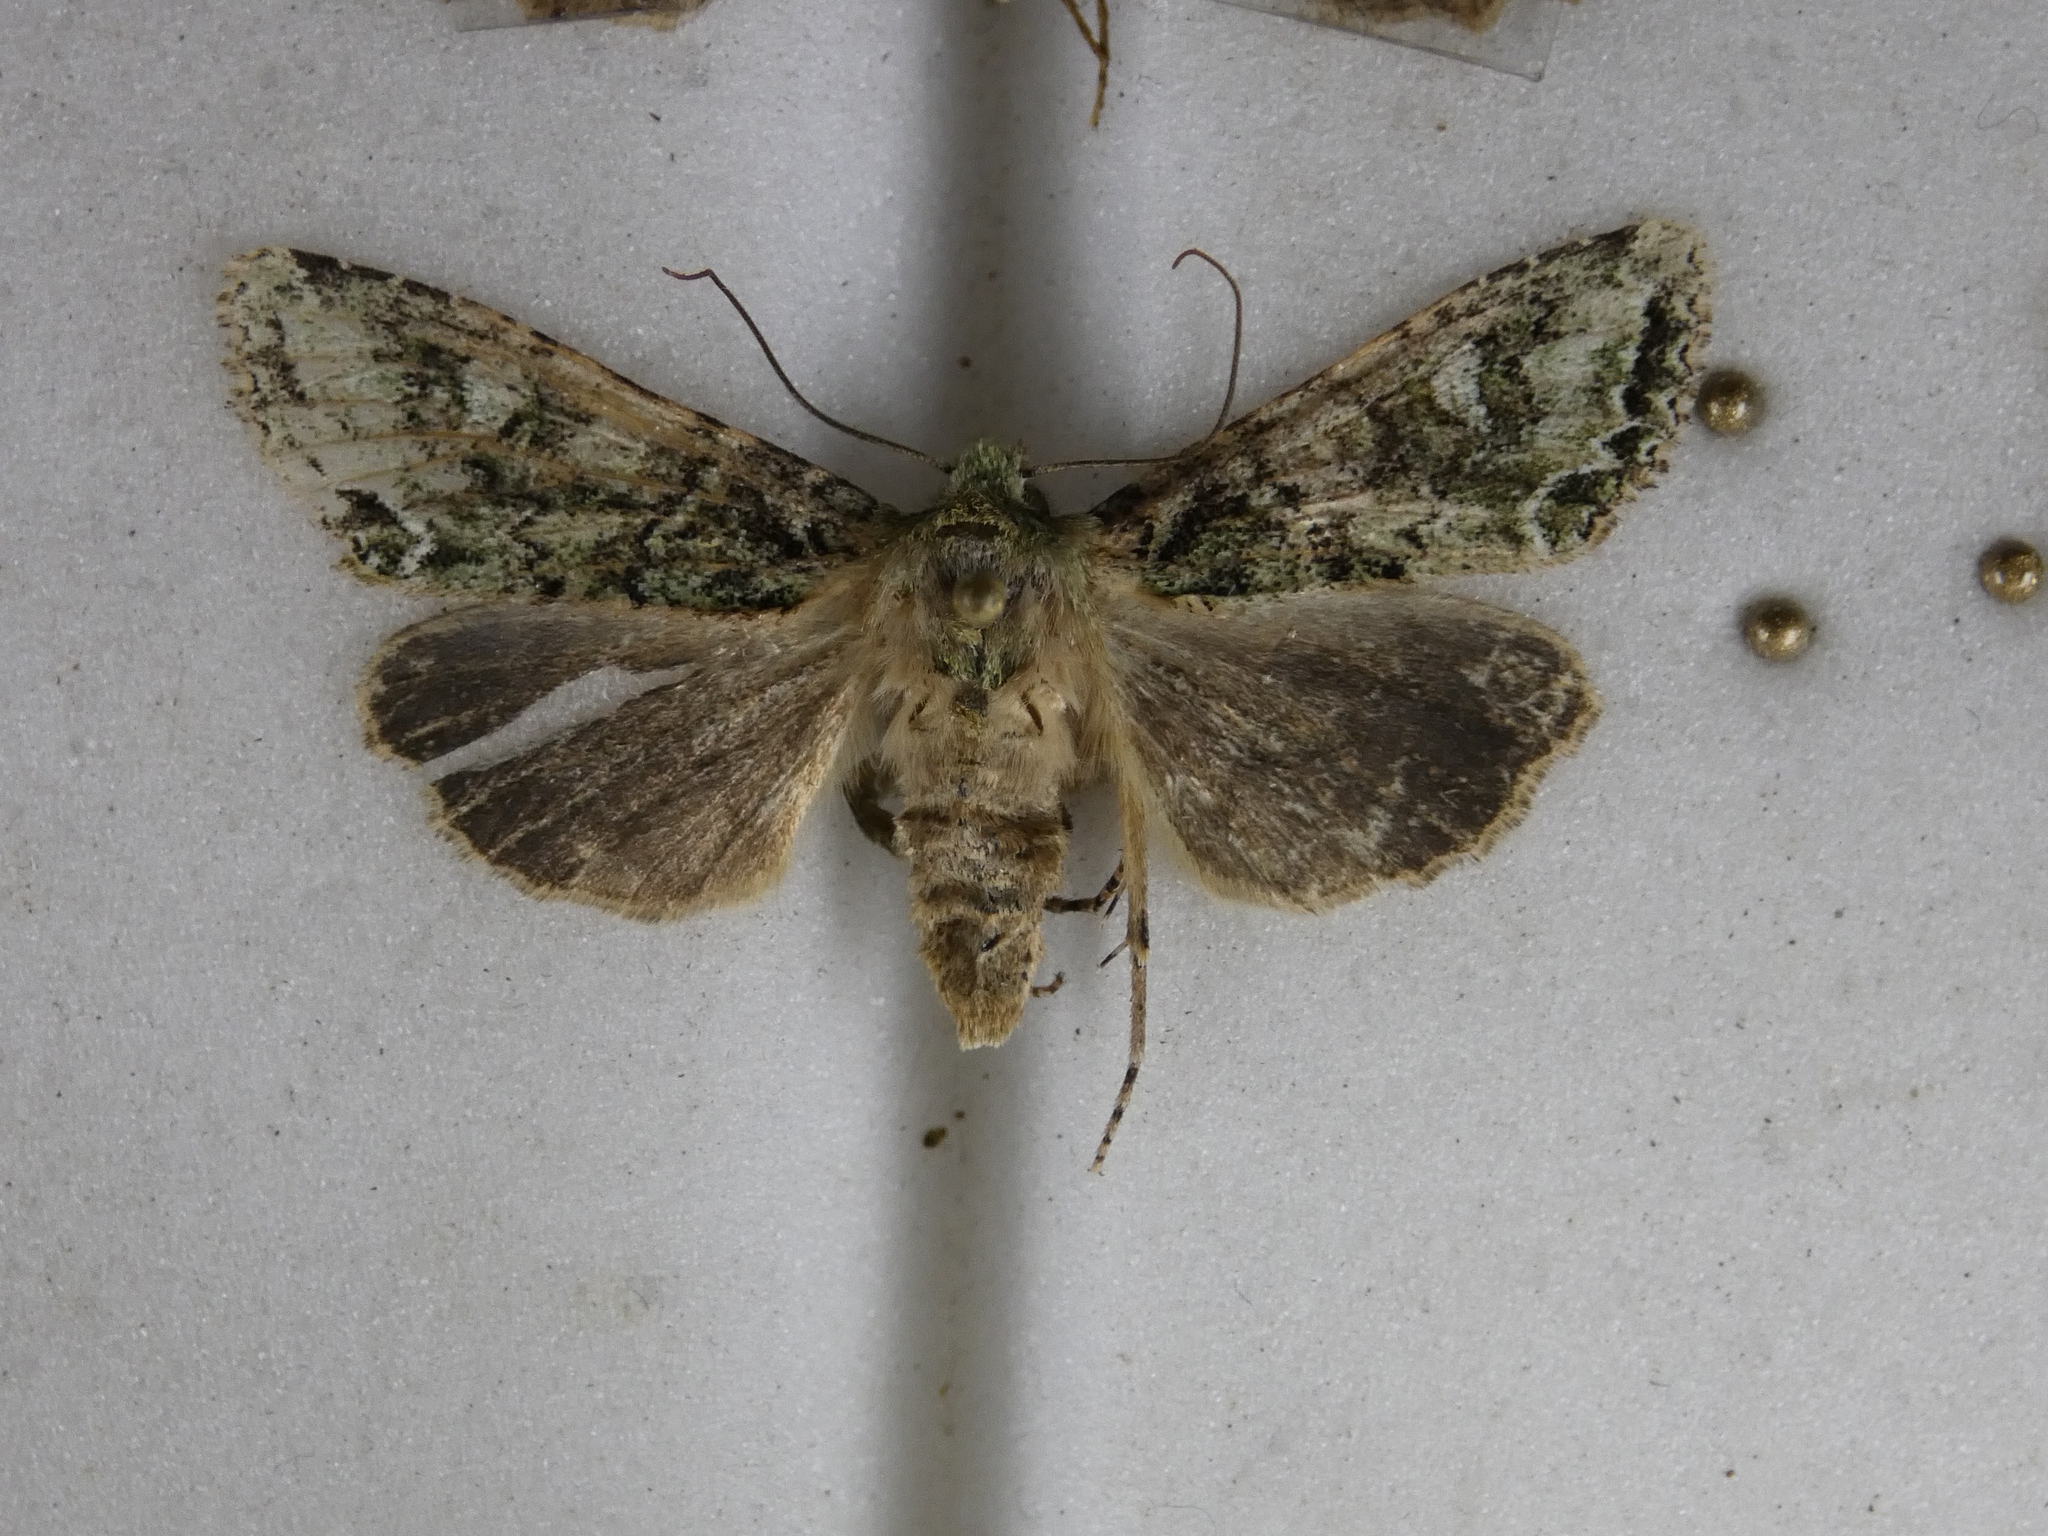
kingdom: Animalia
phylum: Arthropoda
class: Insecta
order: Lepidoptera
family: Noctuidae
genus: Ichneutica
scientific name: Ichneutica
